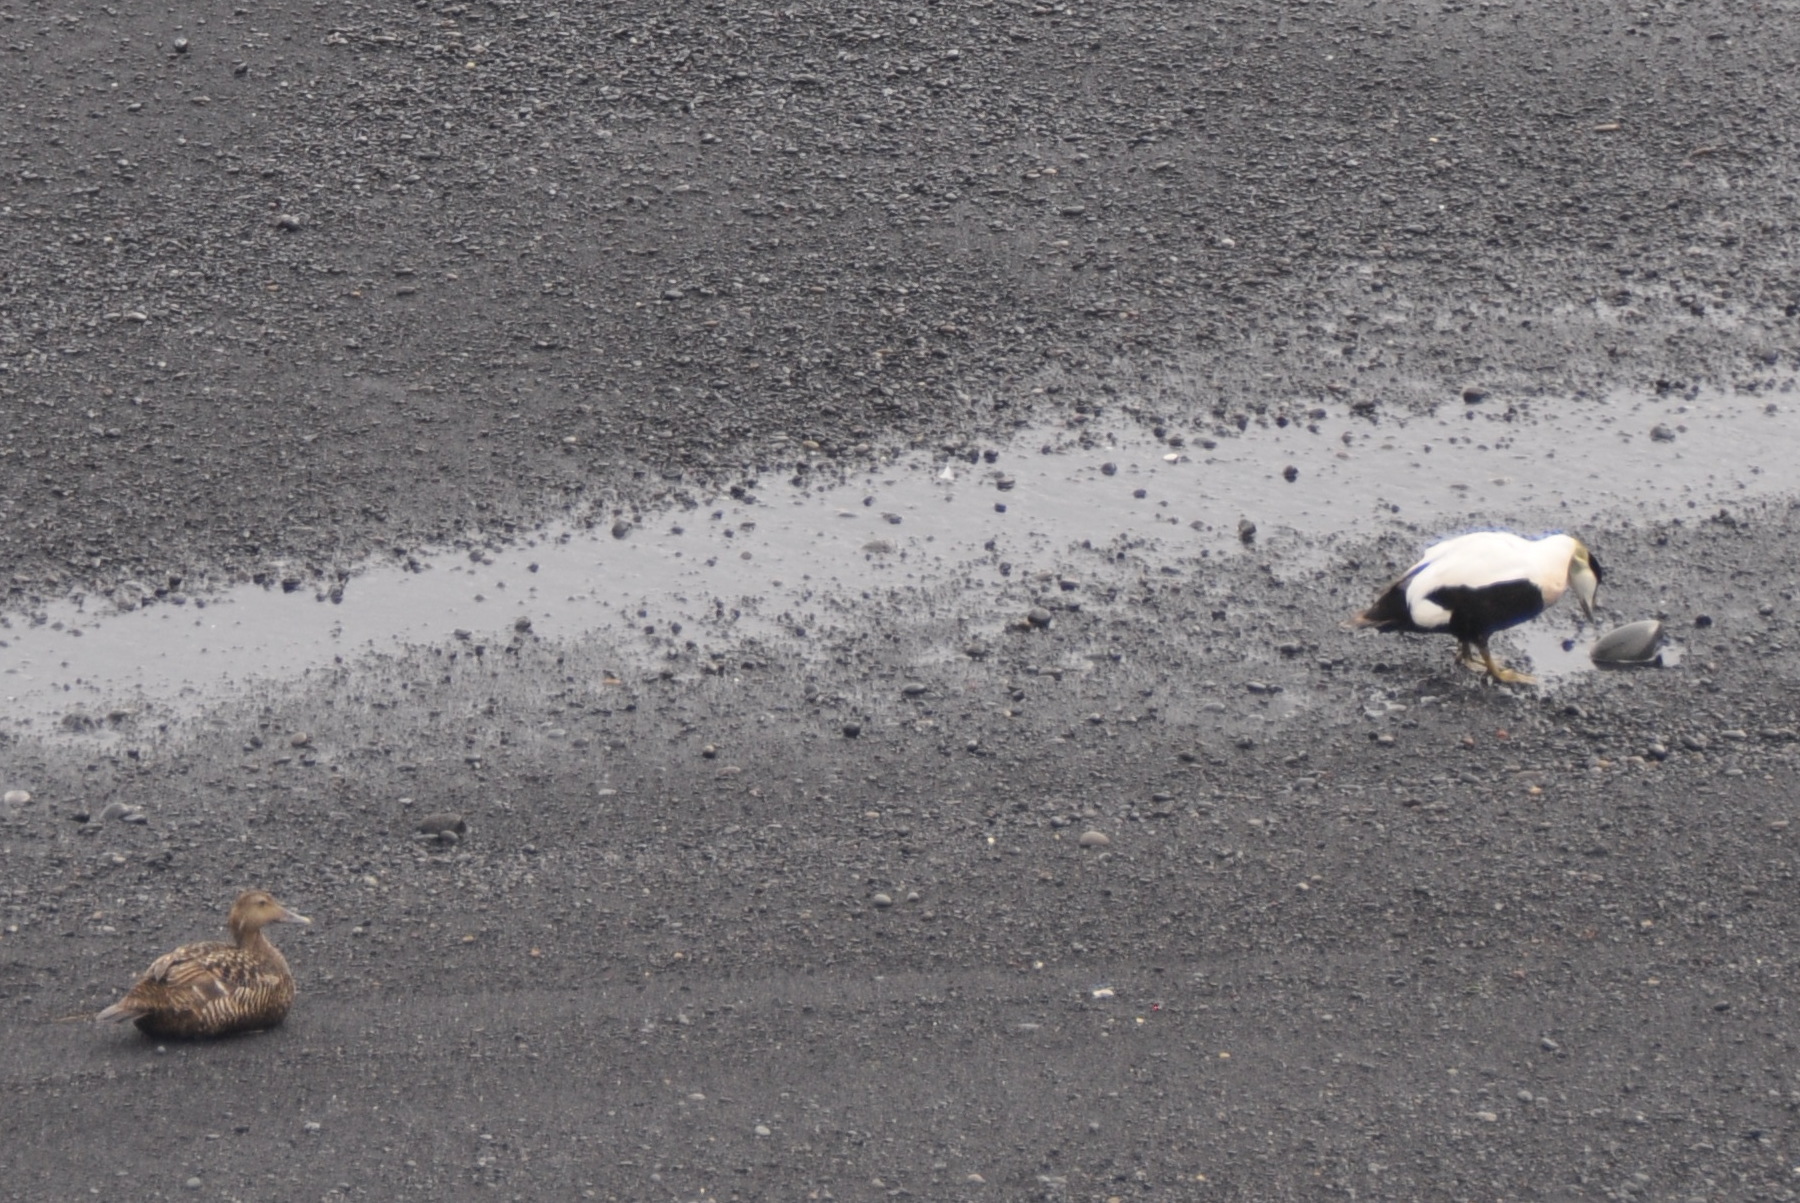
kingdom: Animalia
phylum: Chordata
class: Aves
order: Anseriformes
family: Anatidae
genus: Somateria
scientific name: Somateria mollissima
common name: Common eider
